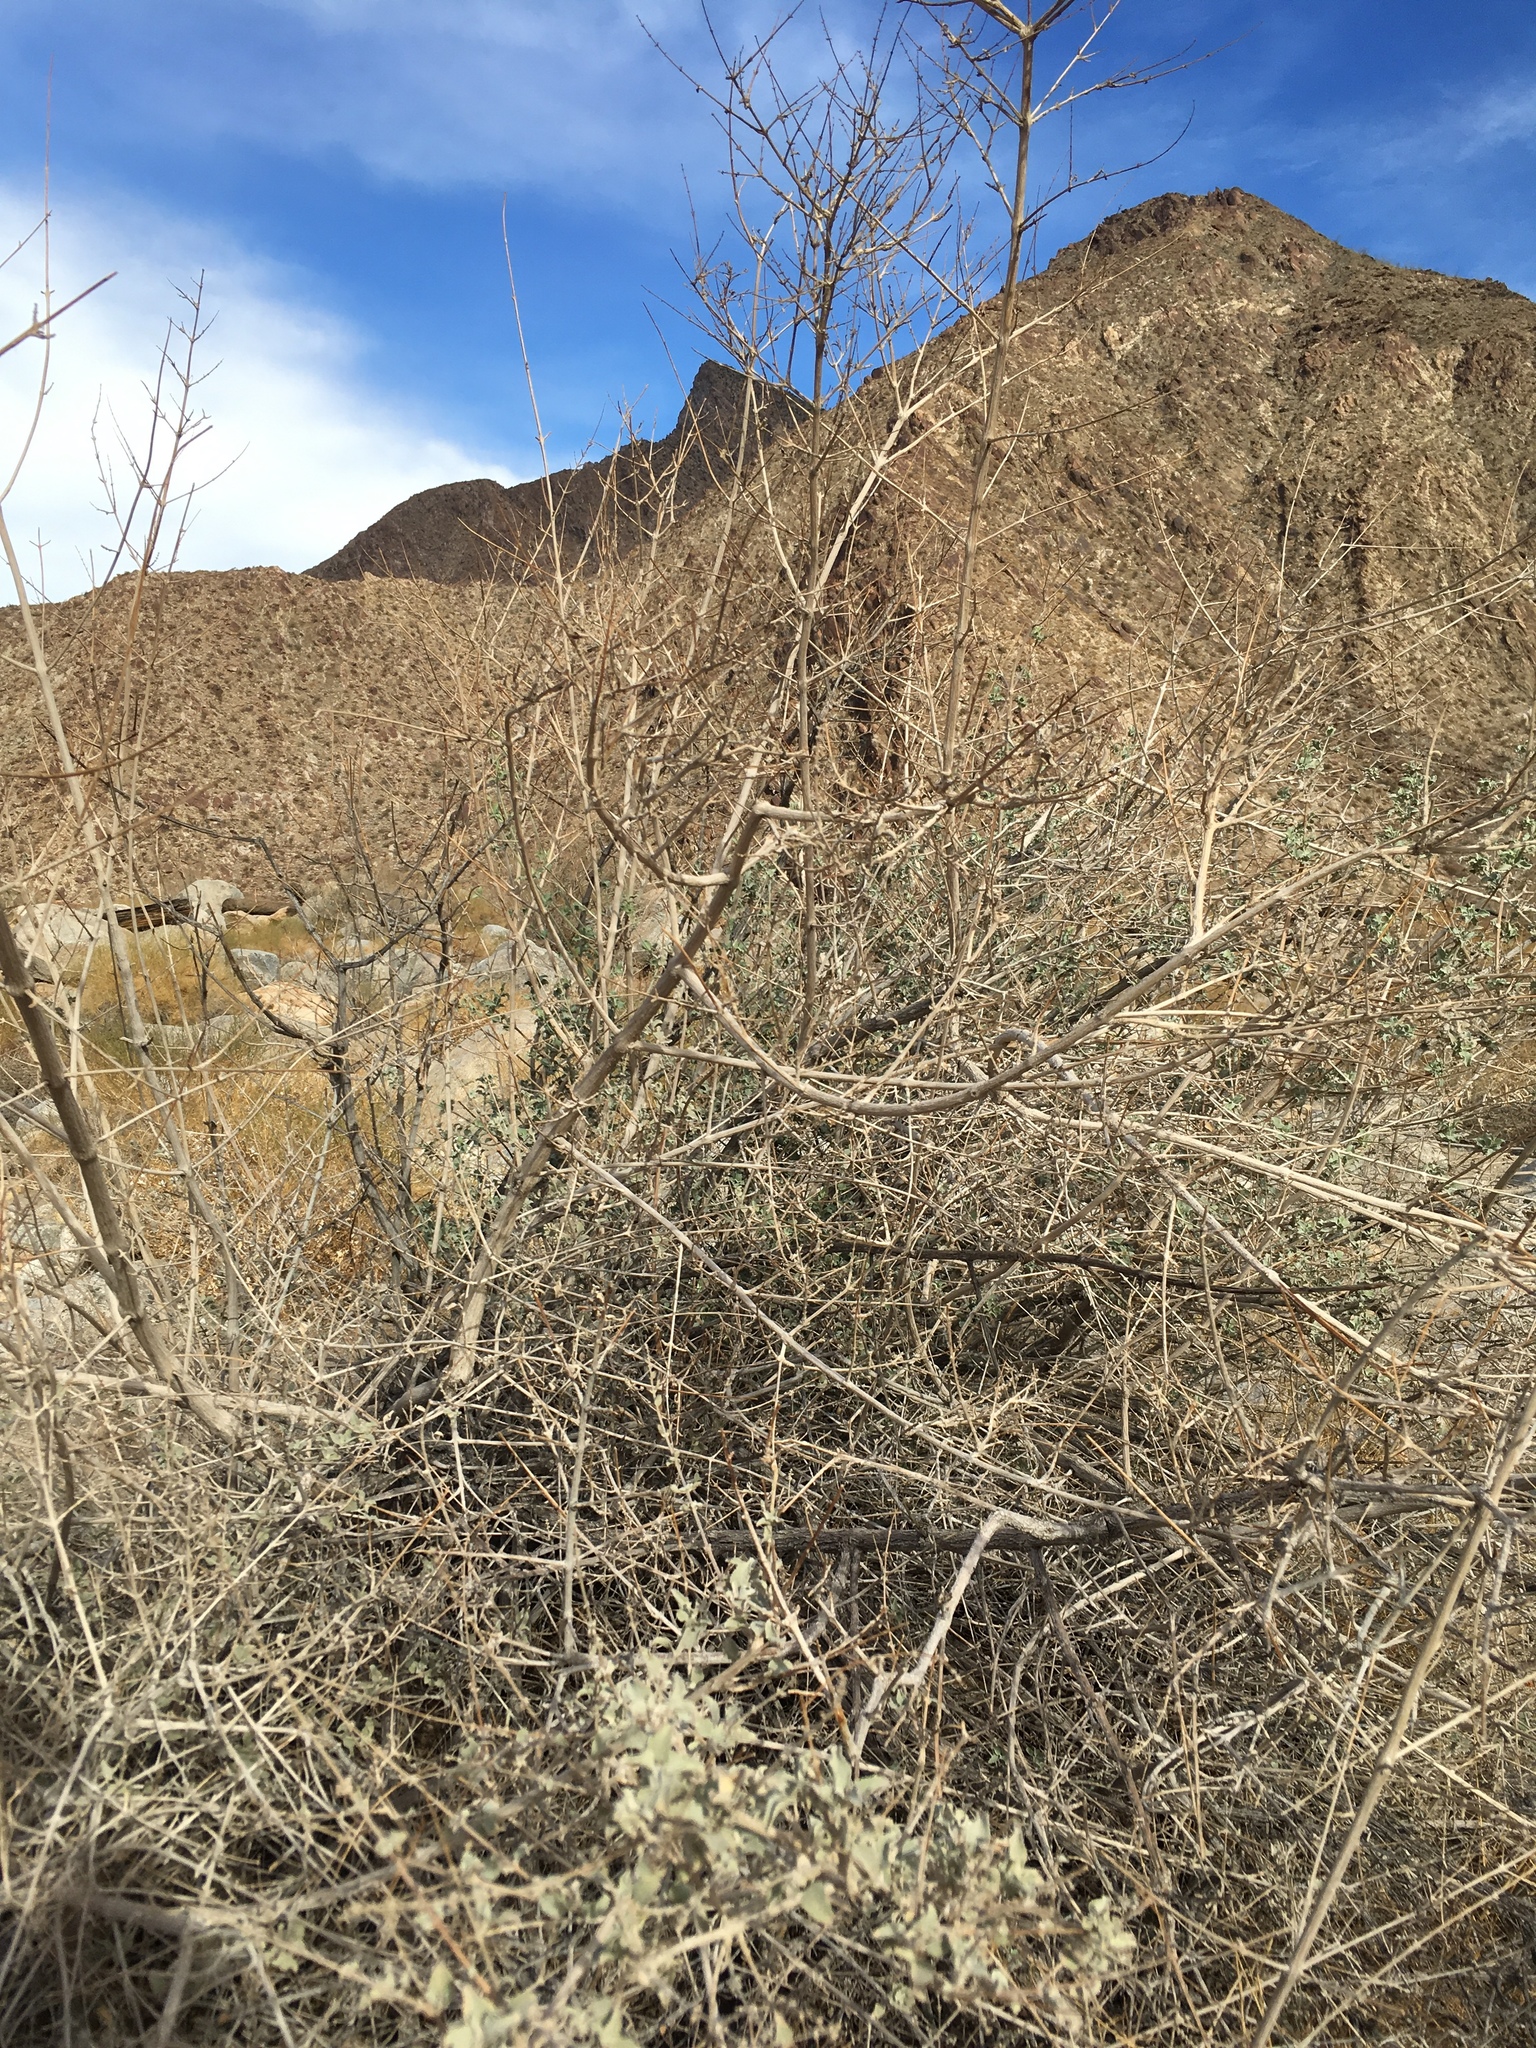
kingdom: Plantae
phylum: Tracheophyta
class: Magnoliopsida
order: Lamiales
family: Lamiaceae
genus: Condea
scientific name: Condea emoryi
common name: Chia
